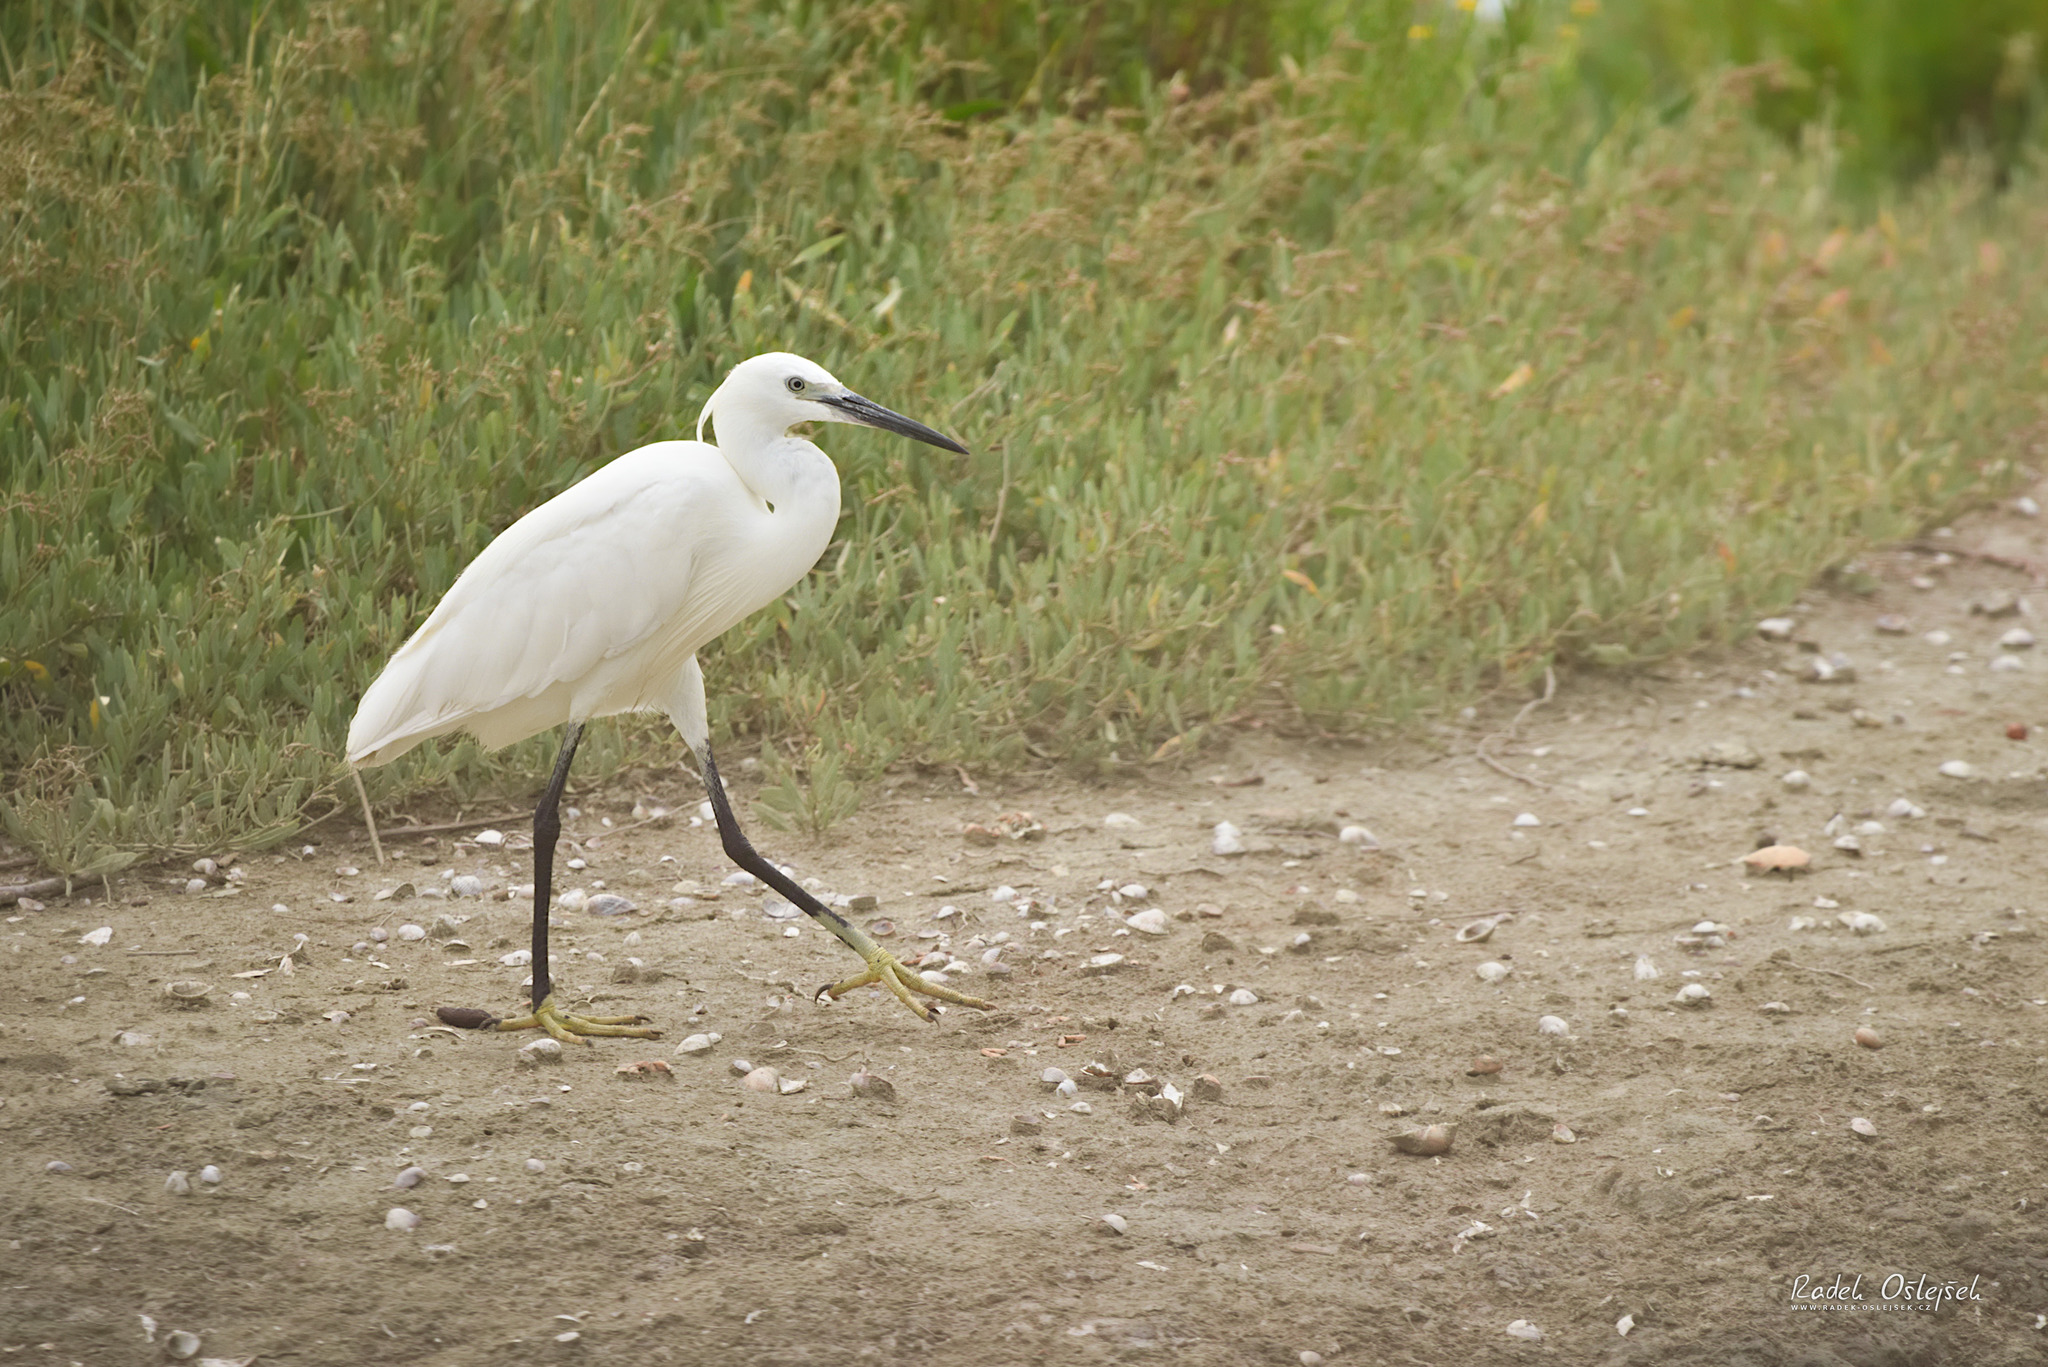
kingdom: Animalia
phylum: Chordata
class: Aves
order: Pelecaniformes
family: Ardeidae
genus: Egretta
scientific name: Egretta garzetta
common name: Little egret
